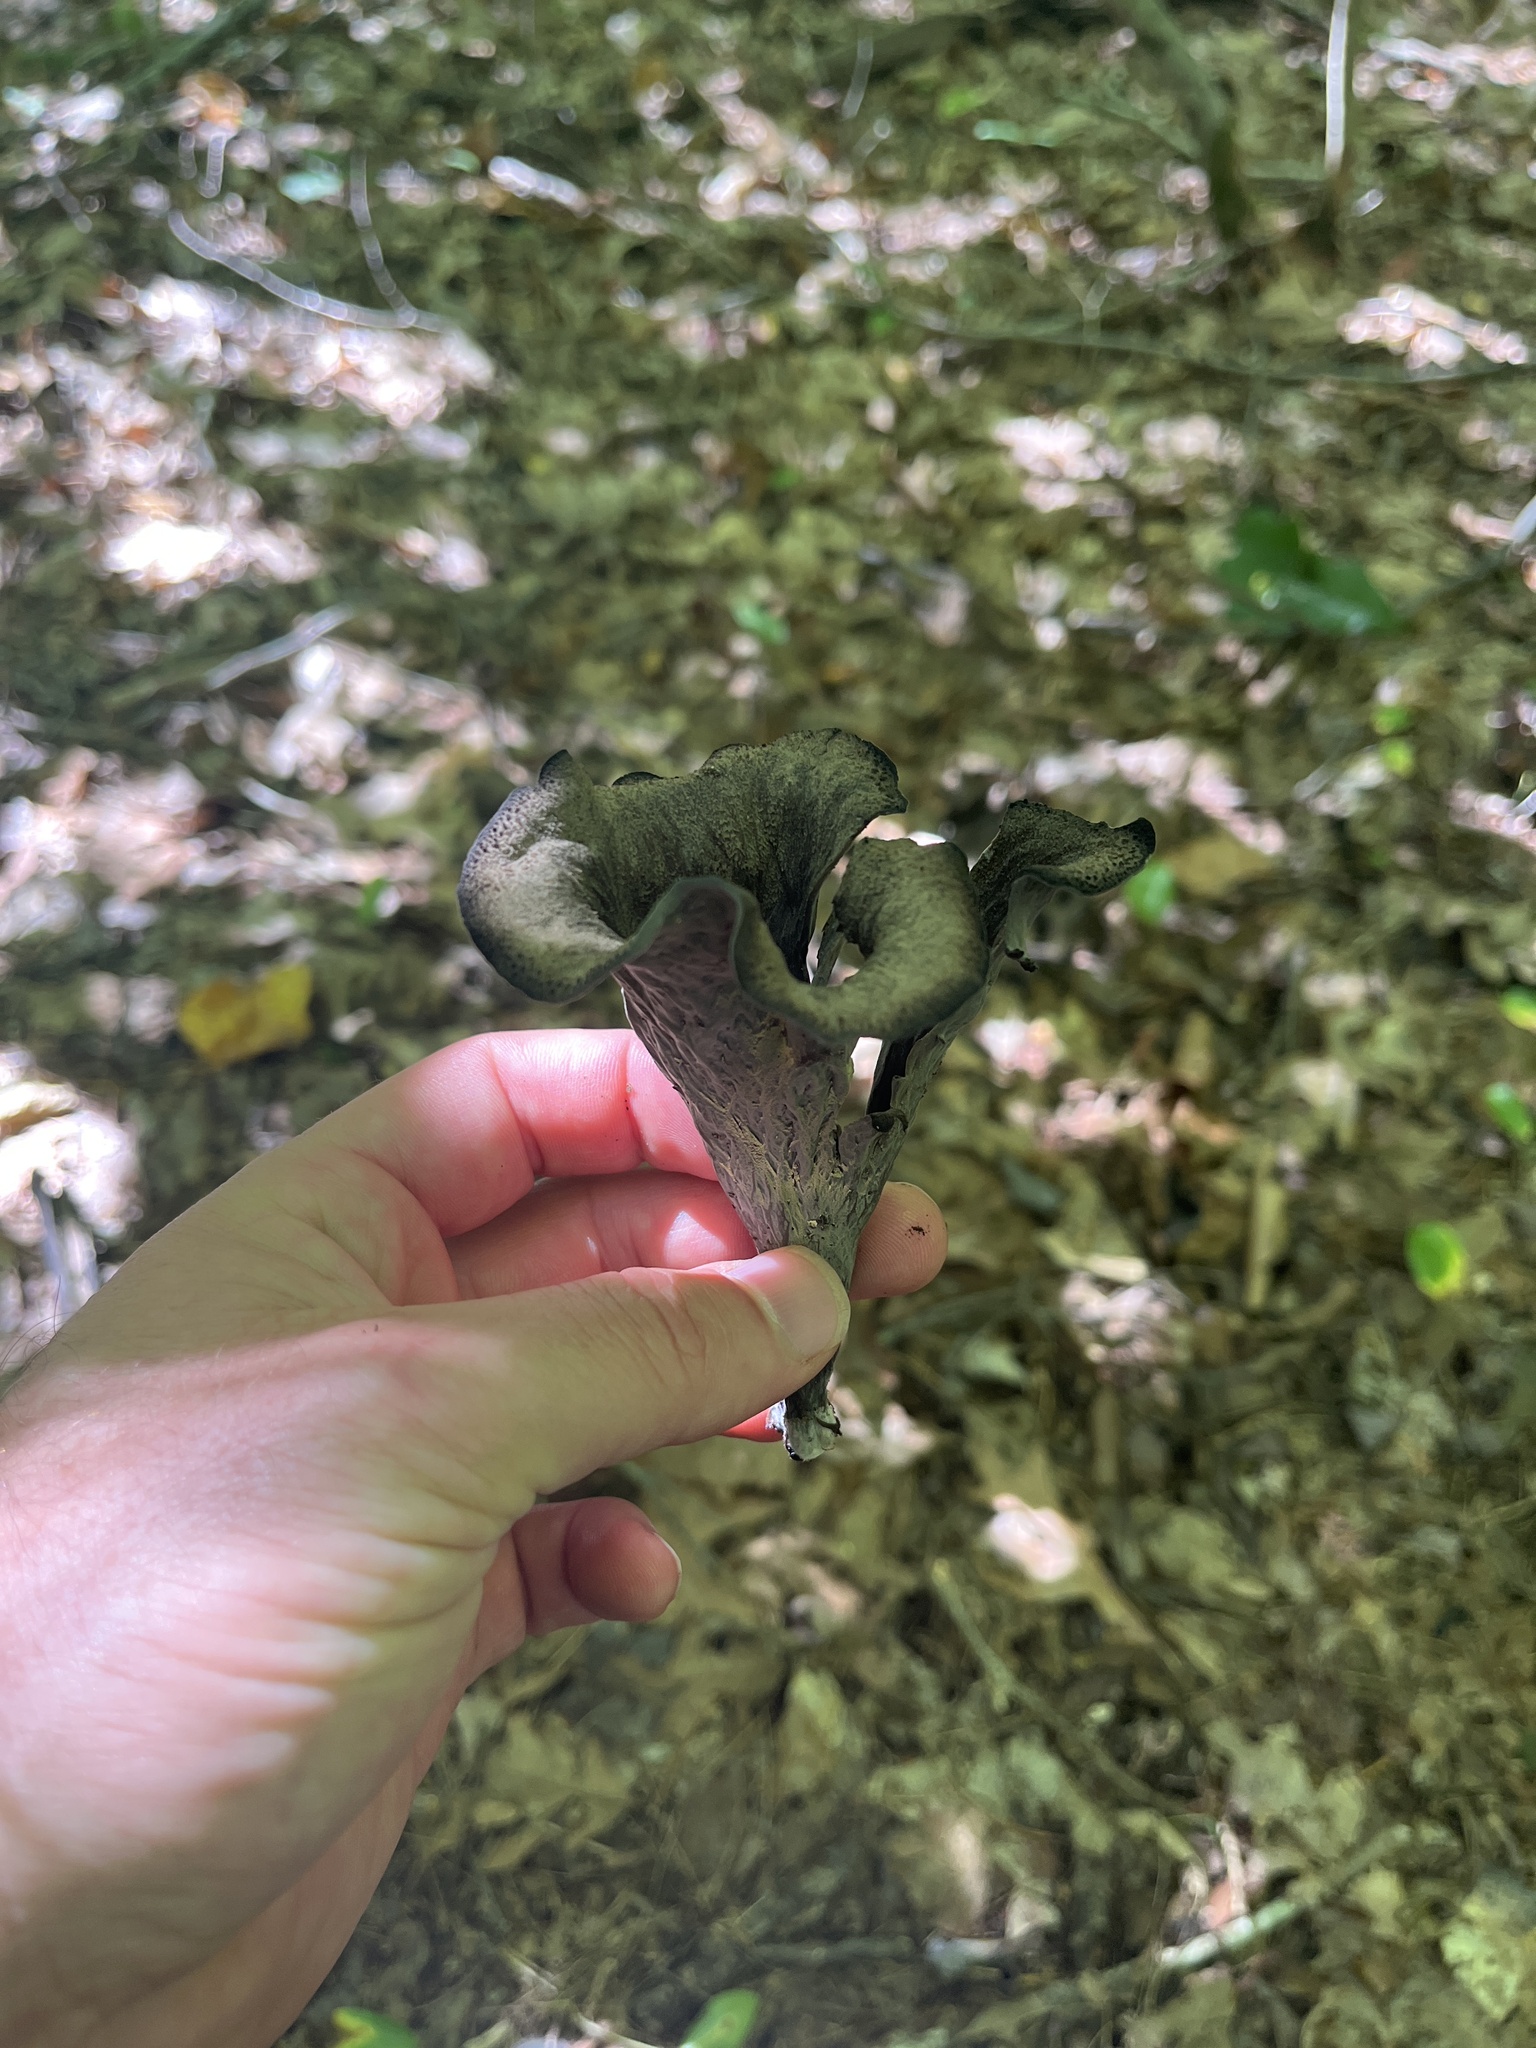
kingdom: Fungi
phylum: Basidiomycota
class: Agaricomycetes
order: Cantharellales
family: Hydnaceae
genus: Craterellus
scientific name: Craterellus cornucopioides
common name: Horn of plenty
